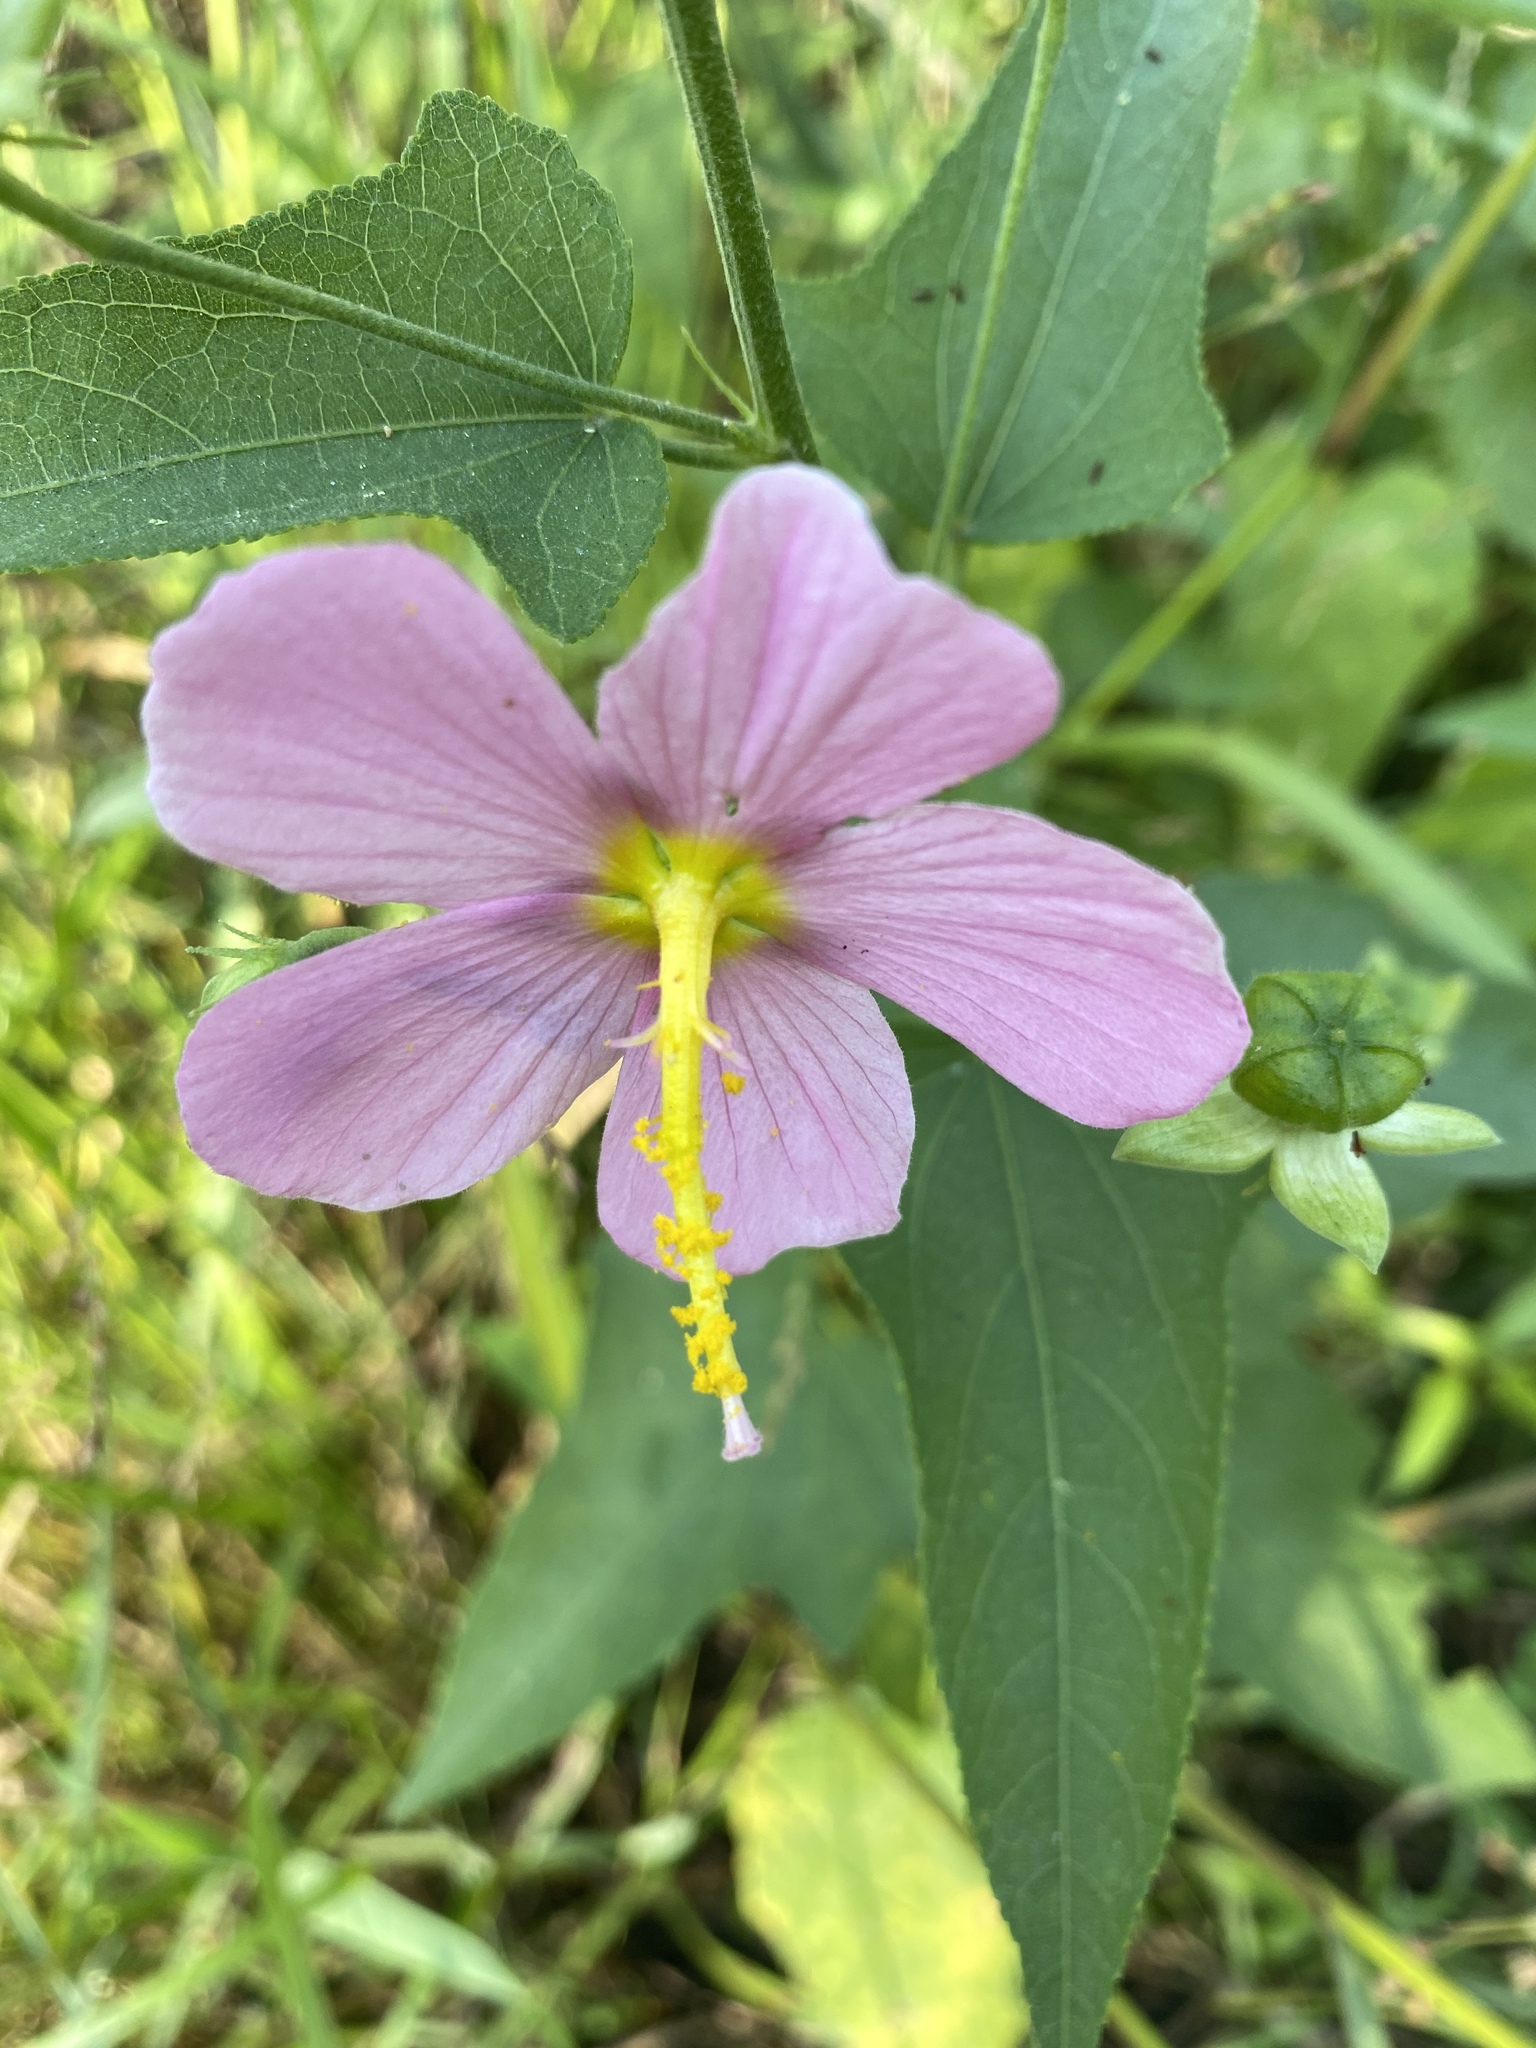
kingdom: Plantae
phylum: Tracheophyta
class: Magnoliopsida
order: Malvales
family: Malvaceae
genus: Kosteletzkya
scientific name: Kosteletzkya pentacarpos
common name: Virginia saltmarsh mallow
